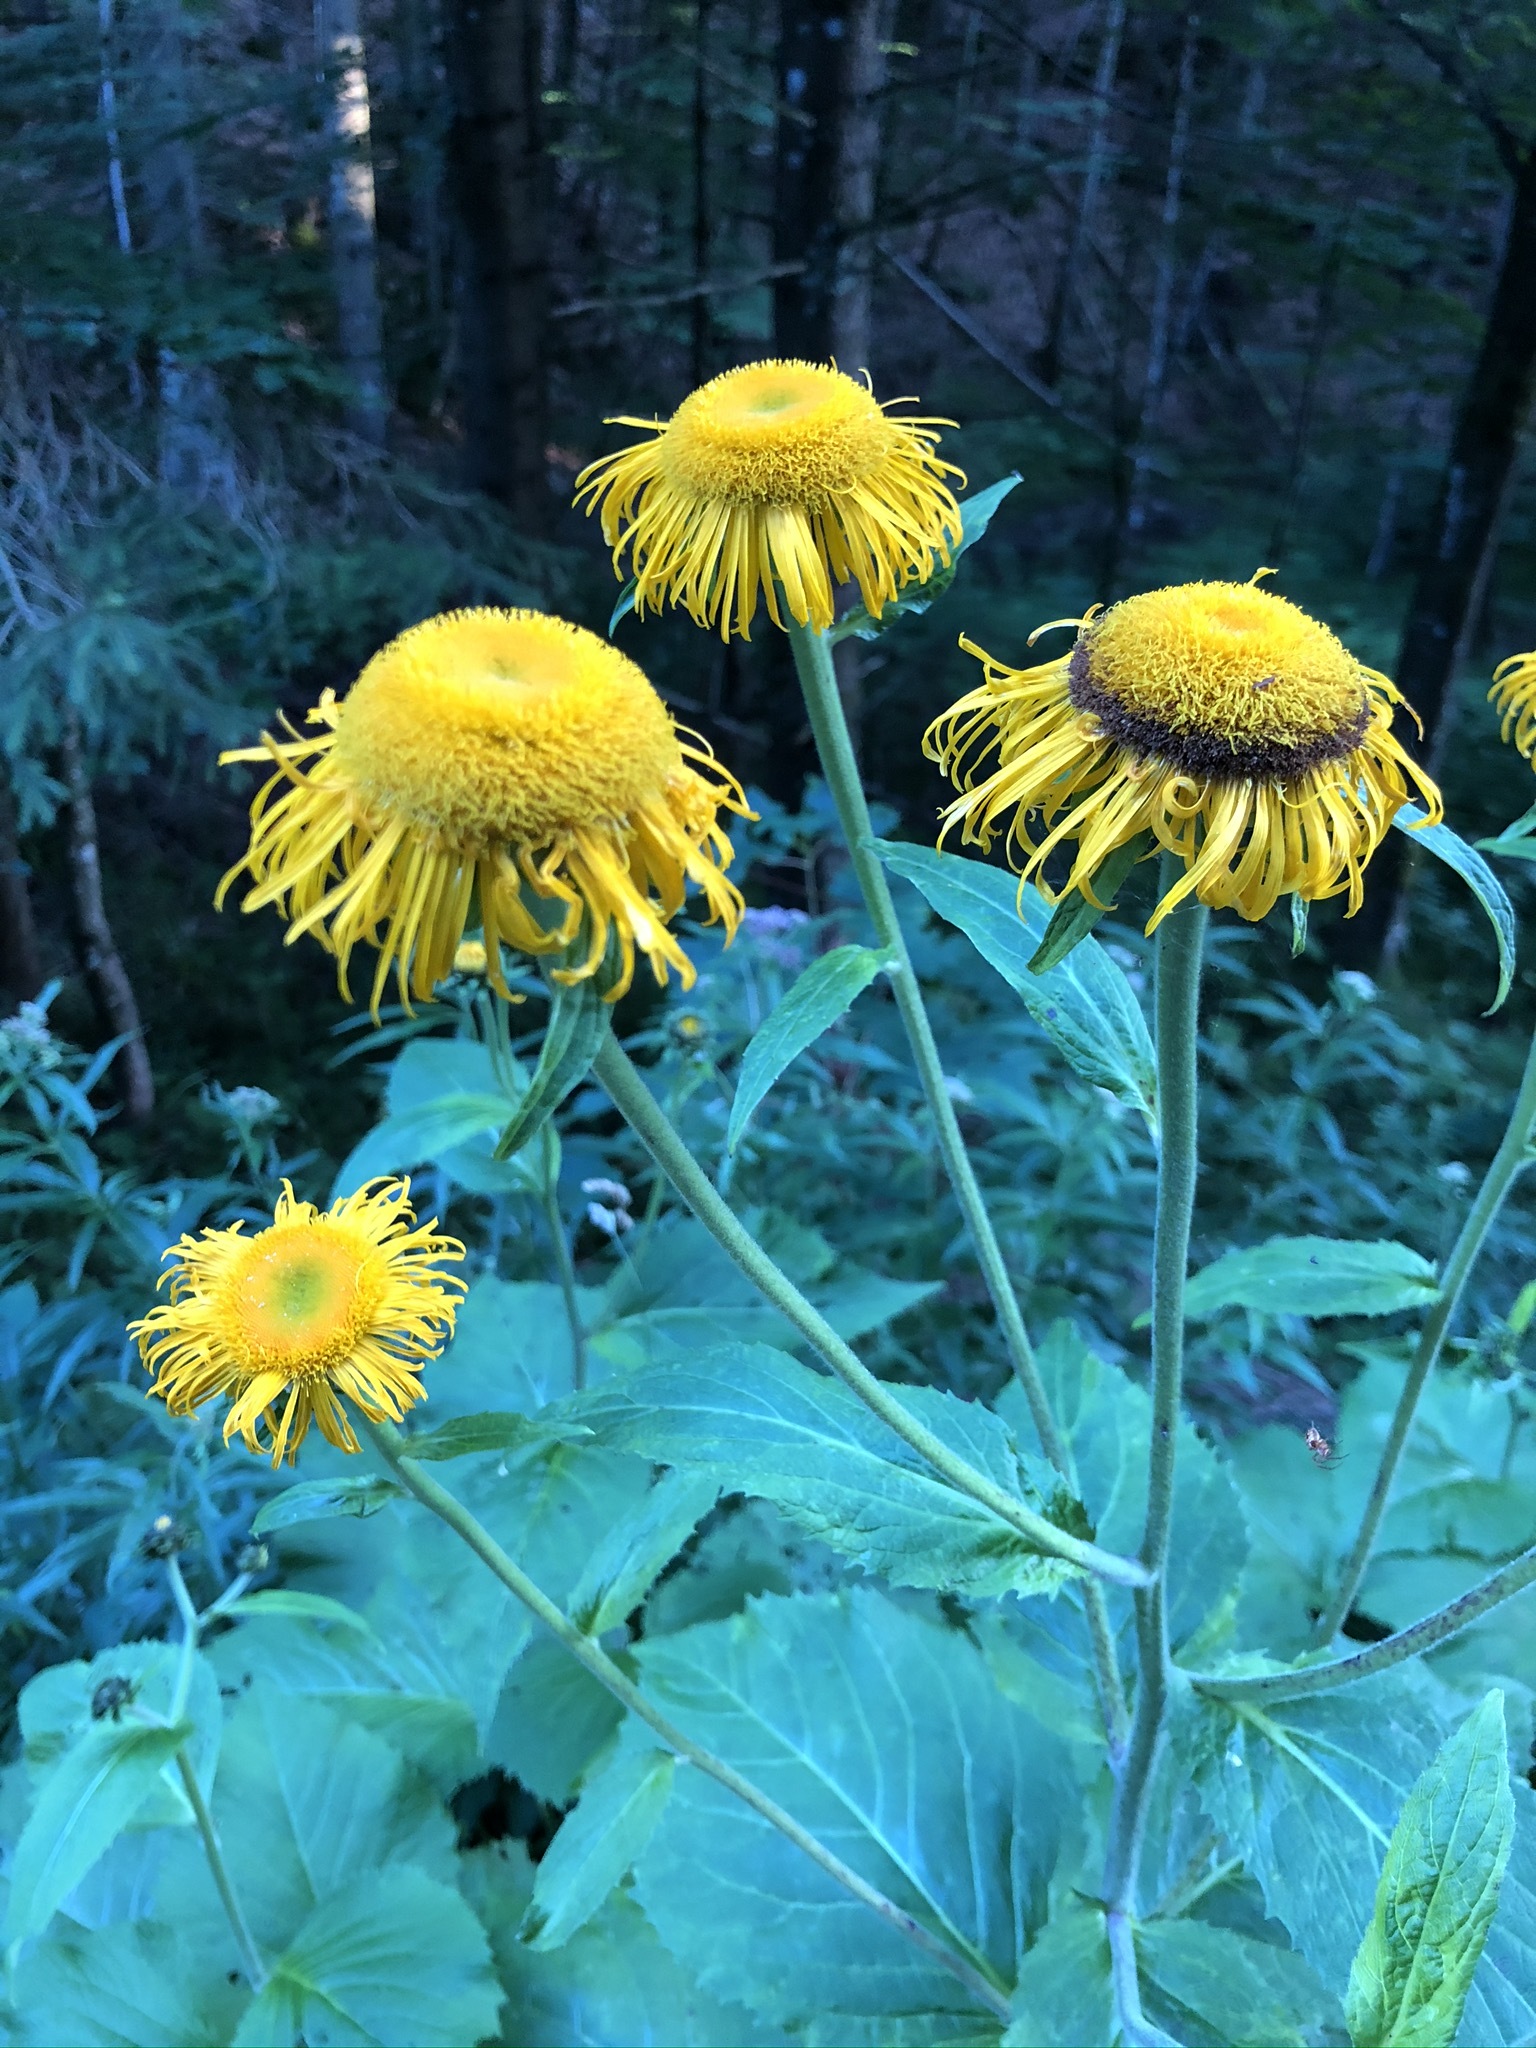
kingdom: Plantae
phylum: Tracheophyta
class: Magnoliopsida
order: Asterales
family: Asteraceae
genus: Telekia
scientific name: Telekia speciosa
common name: Yellow oxeye
